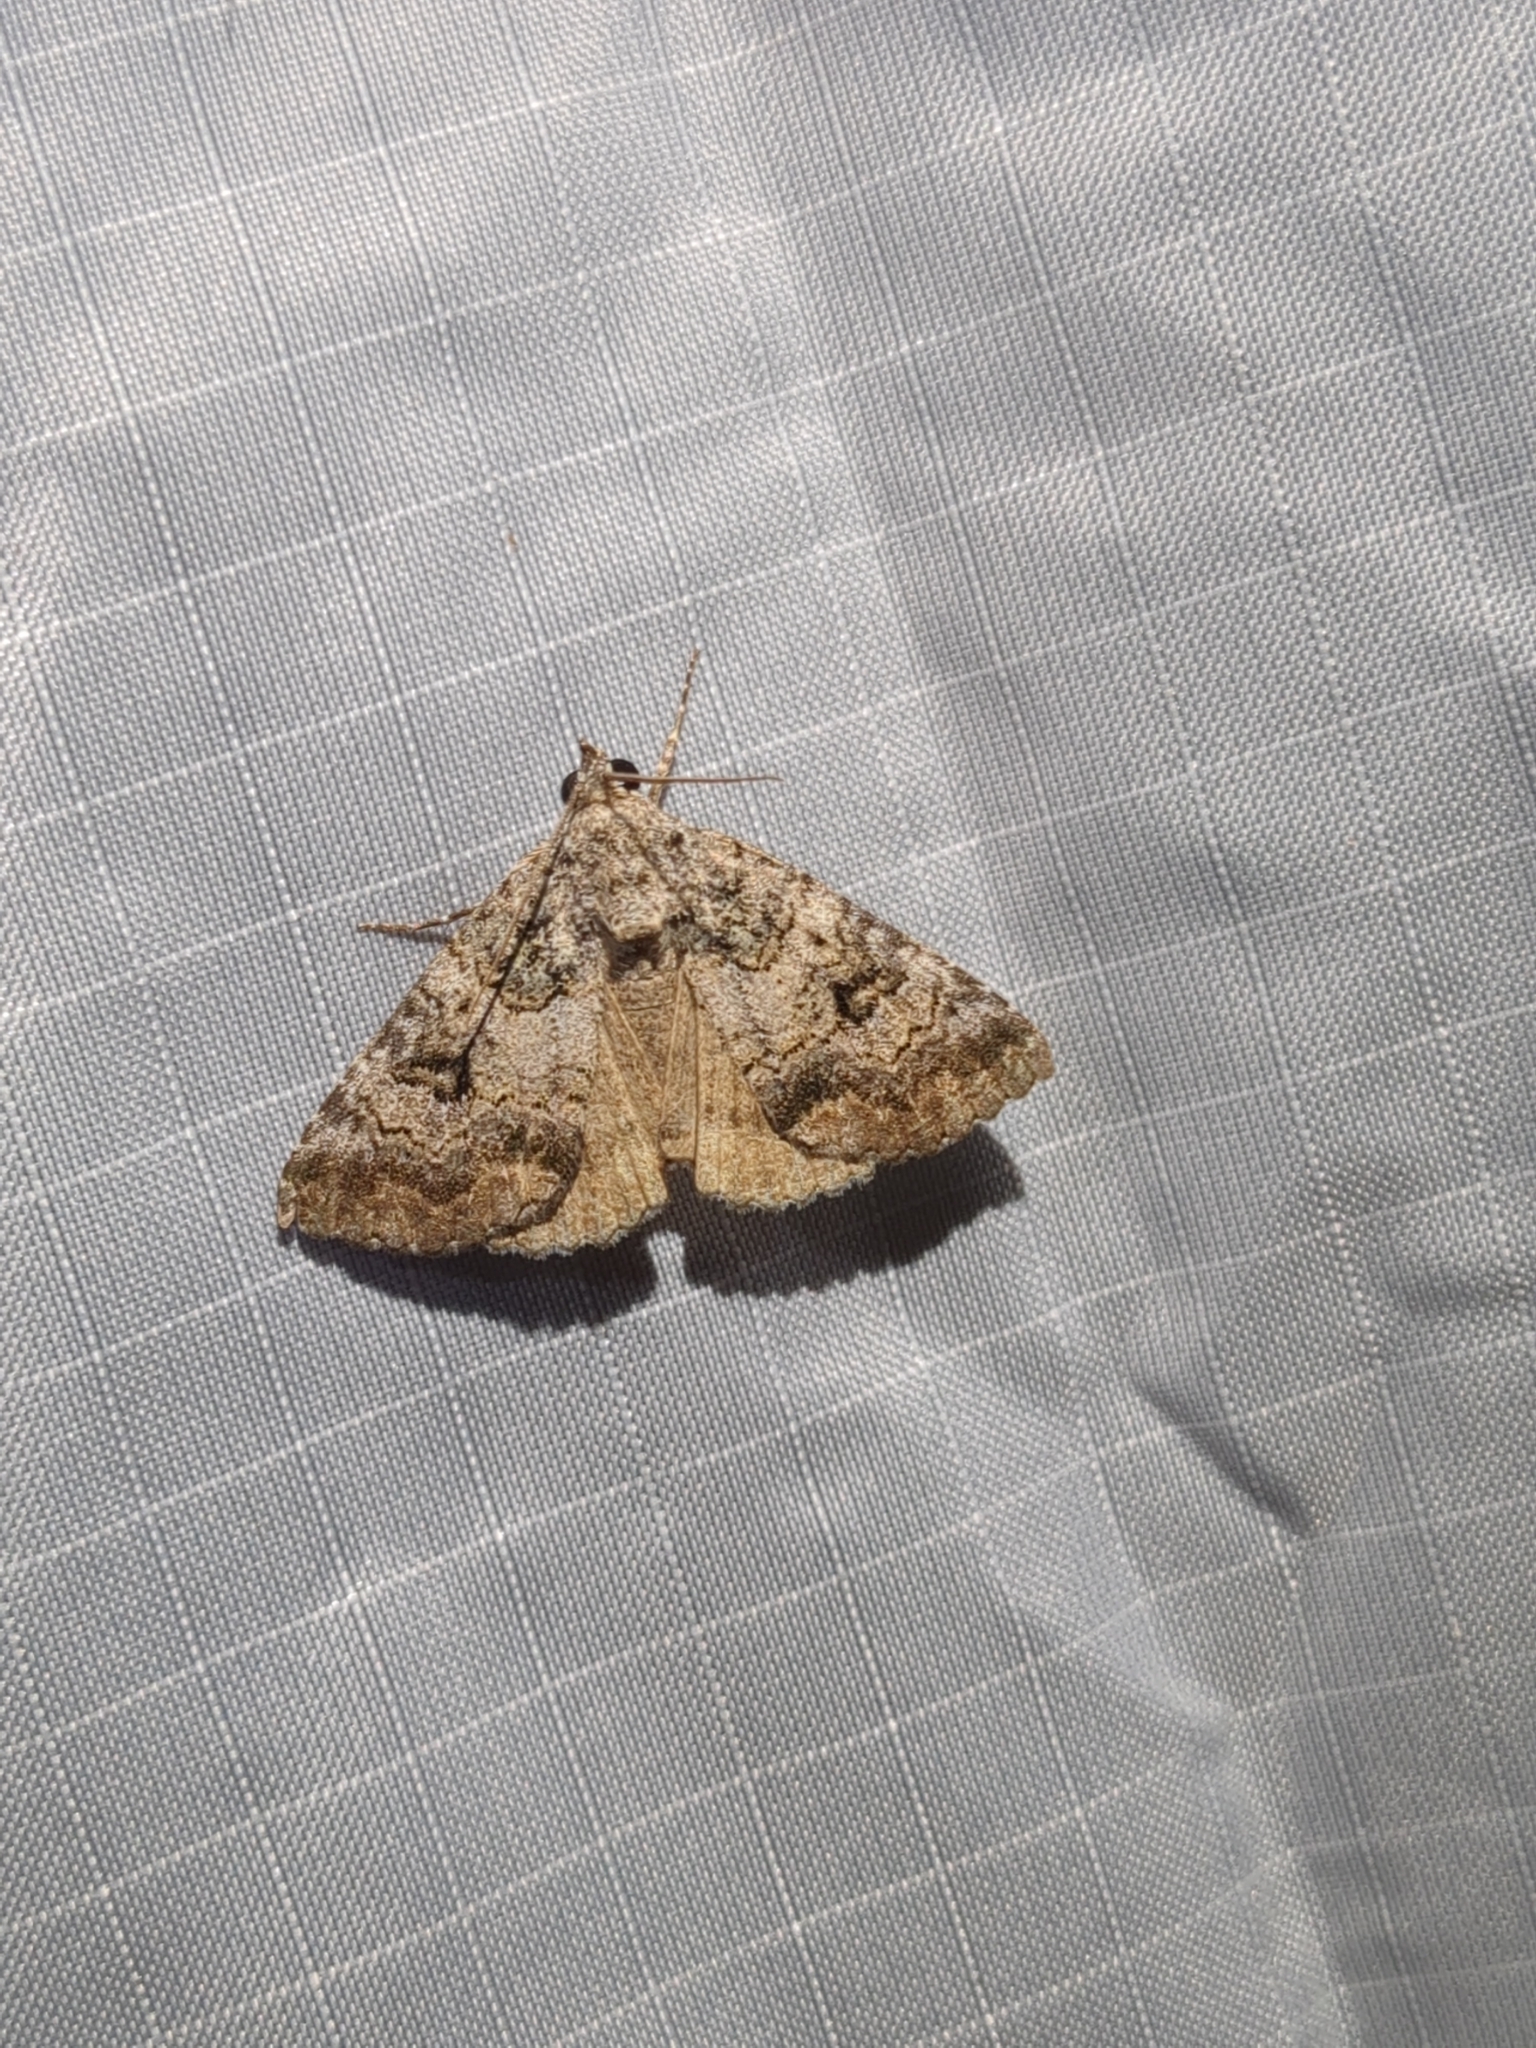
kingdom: Animalia
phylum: Arthropoda
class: Insecta
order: Lepidoptera
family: Erebidae
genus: Eubolina
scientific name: Eubolina impartialis
